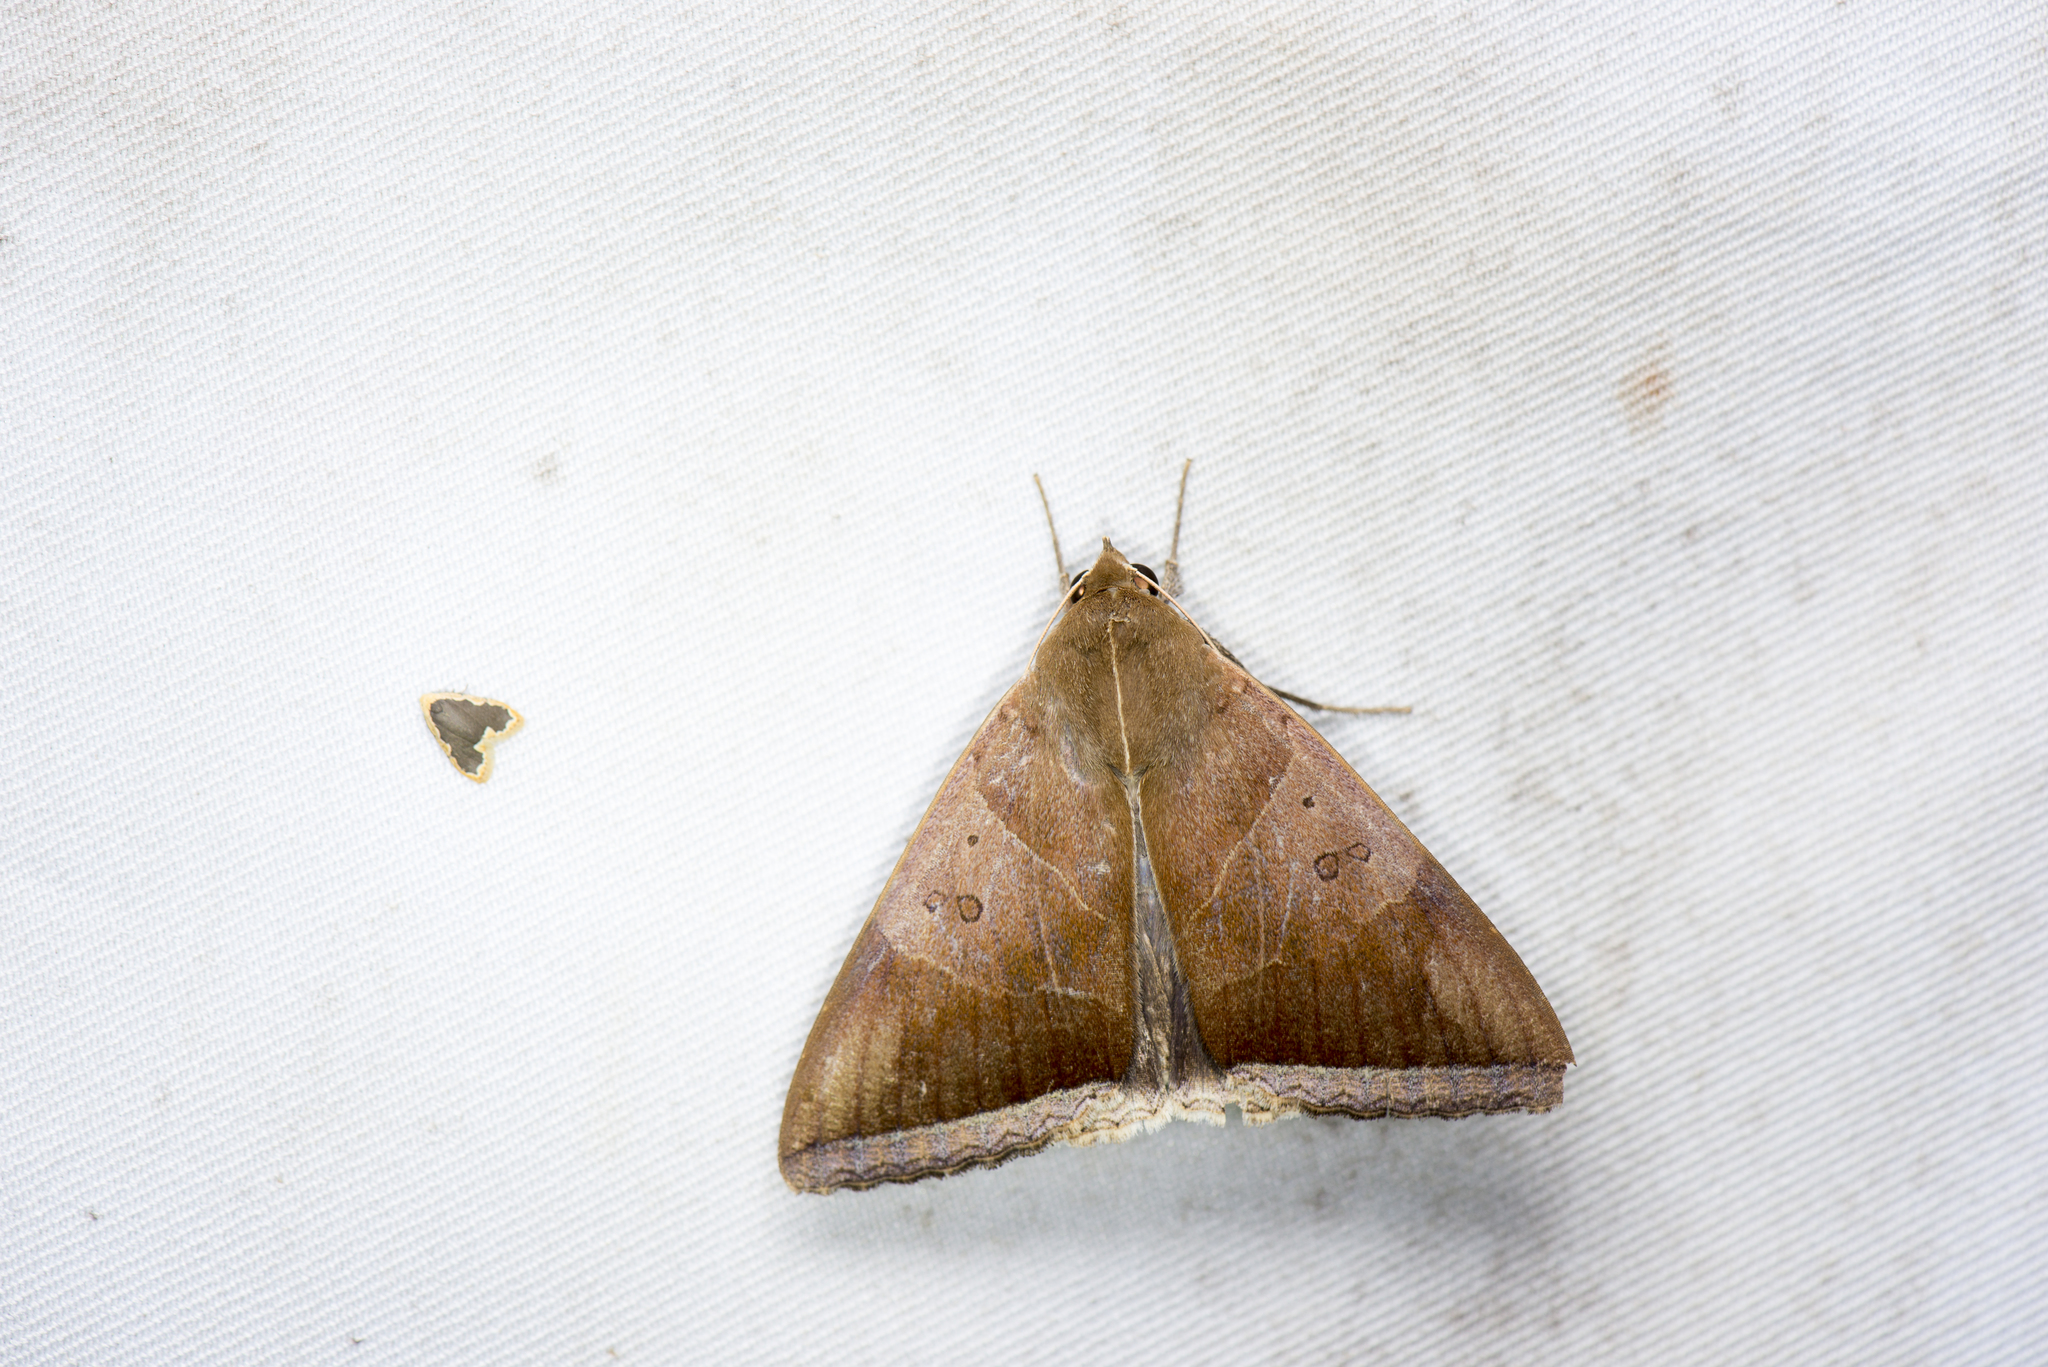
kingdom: Animalia
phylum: Arthropoda
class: Insecta
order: Lepidoptera
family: Erebidae
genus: Artena
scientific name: Artena dotata
